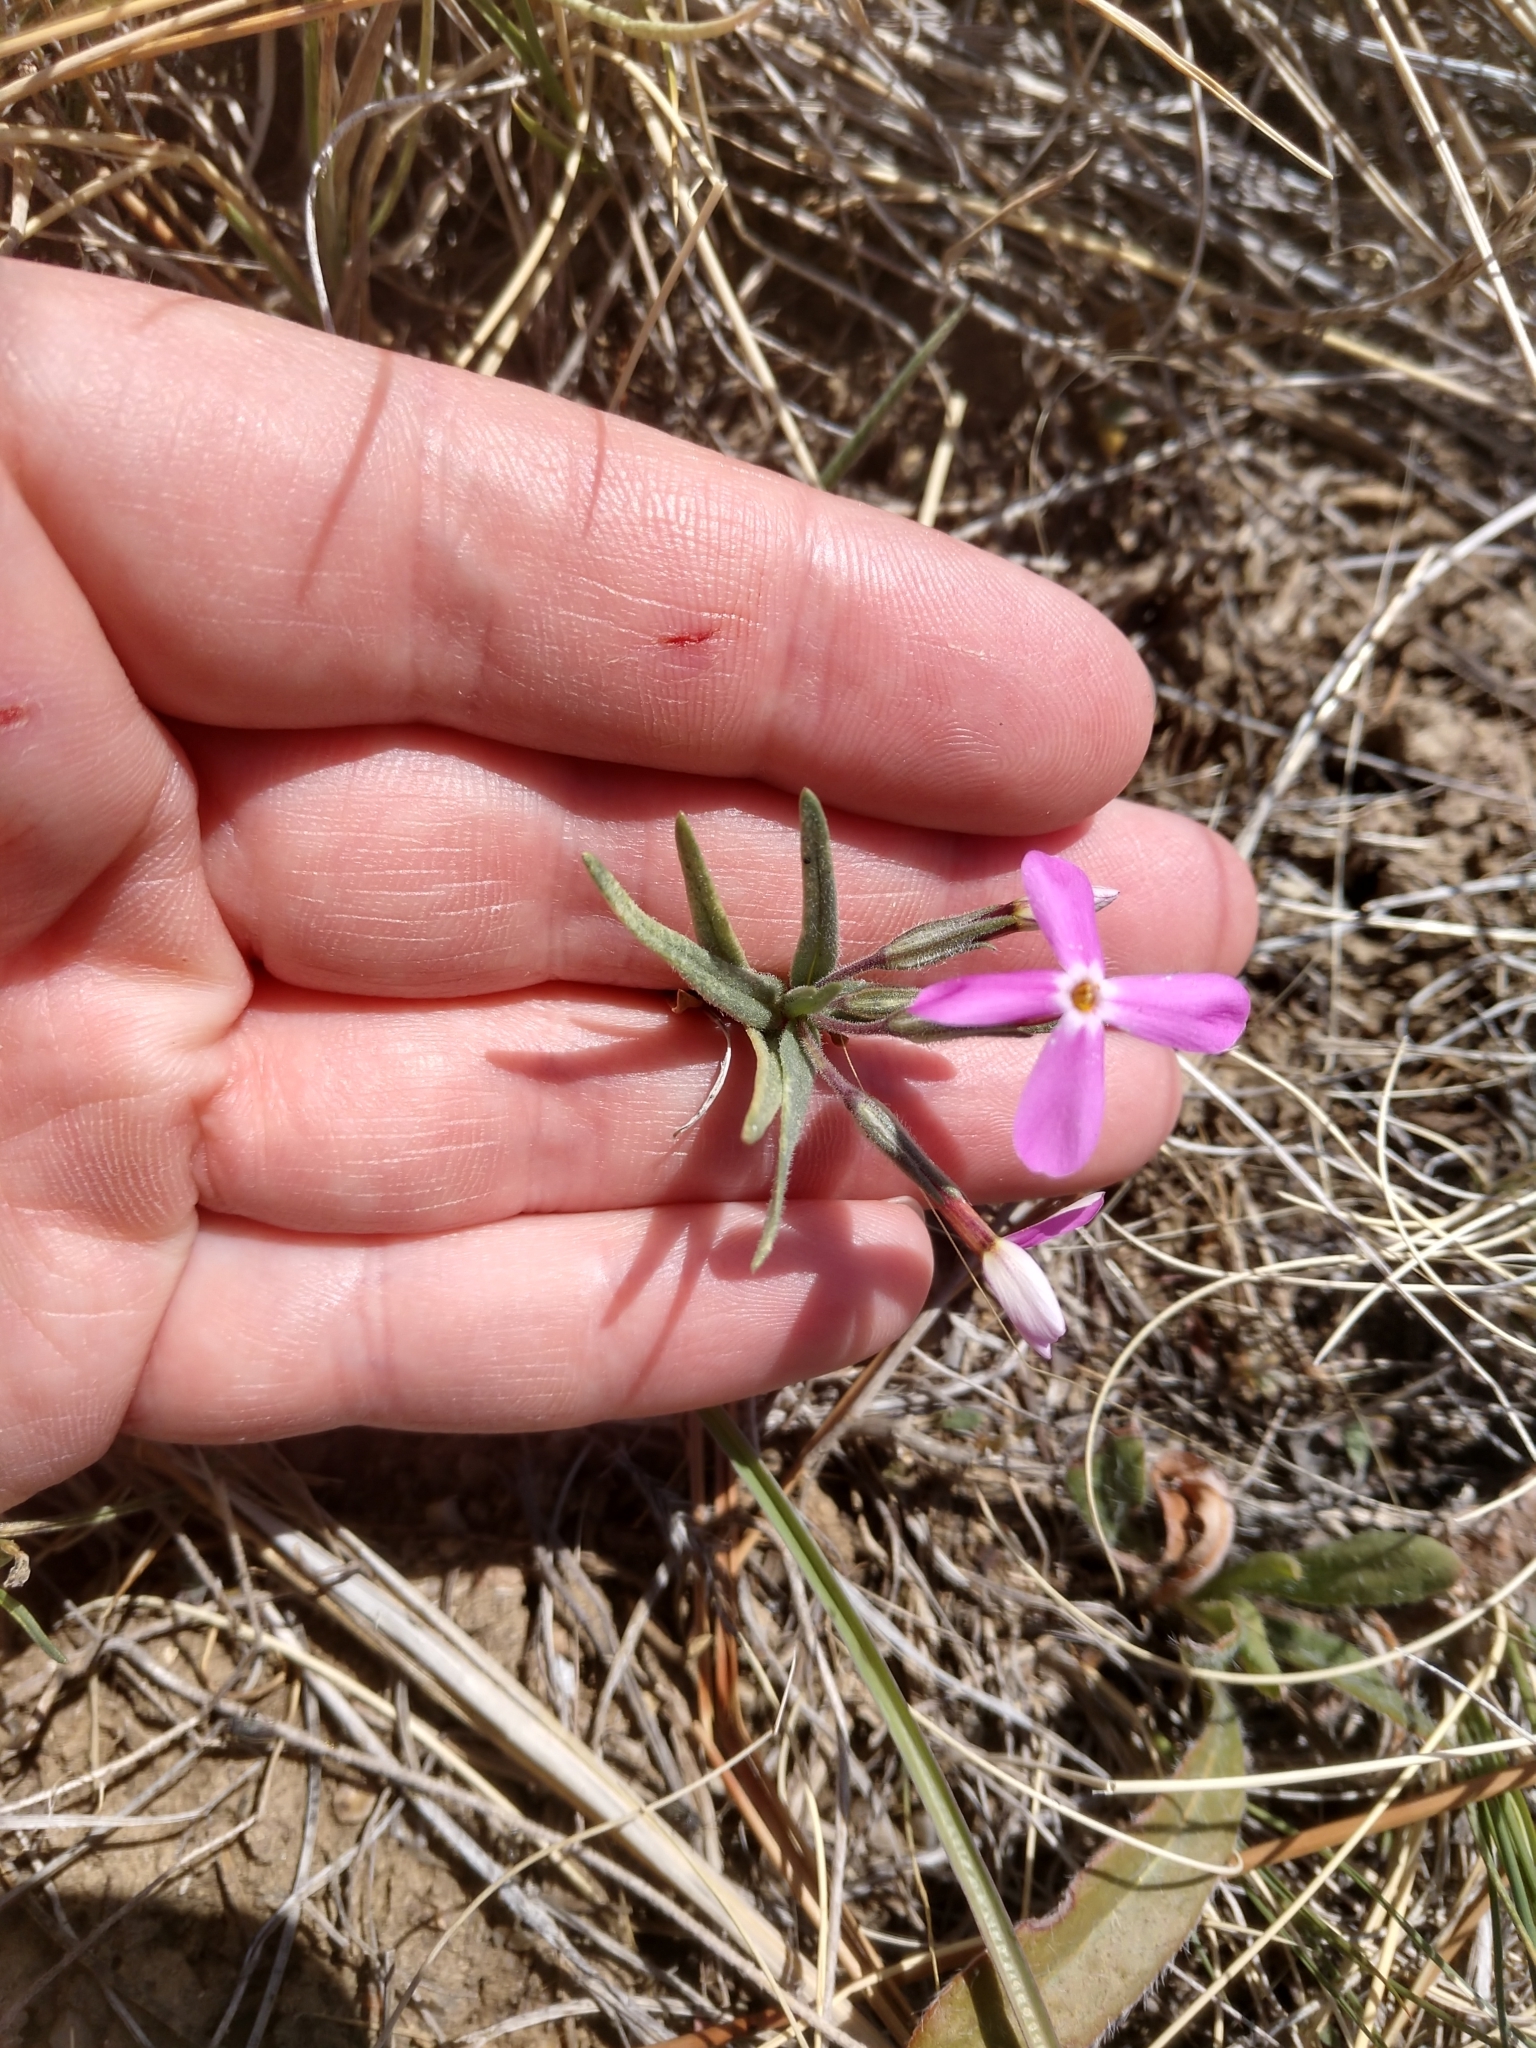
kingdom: Plantae
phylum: Tracheophyta
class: Magnoliopsida
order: Ericales
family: Polemoniaceae
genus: Phlox
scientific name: Phlox longifolia
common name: Longleaf phlox
